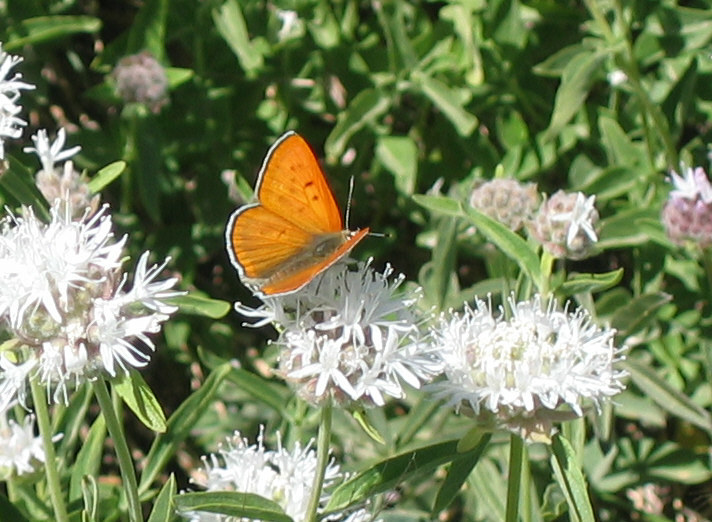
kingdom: Animalia
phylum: Arthropoda
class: Insecta
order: Lepidoptera
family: Lycaenidae
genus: Tharsalea
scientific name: Tharsalea rubidus
